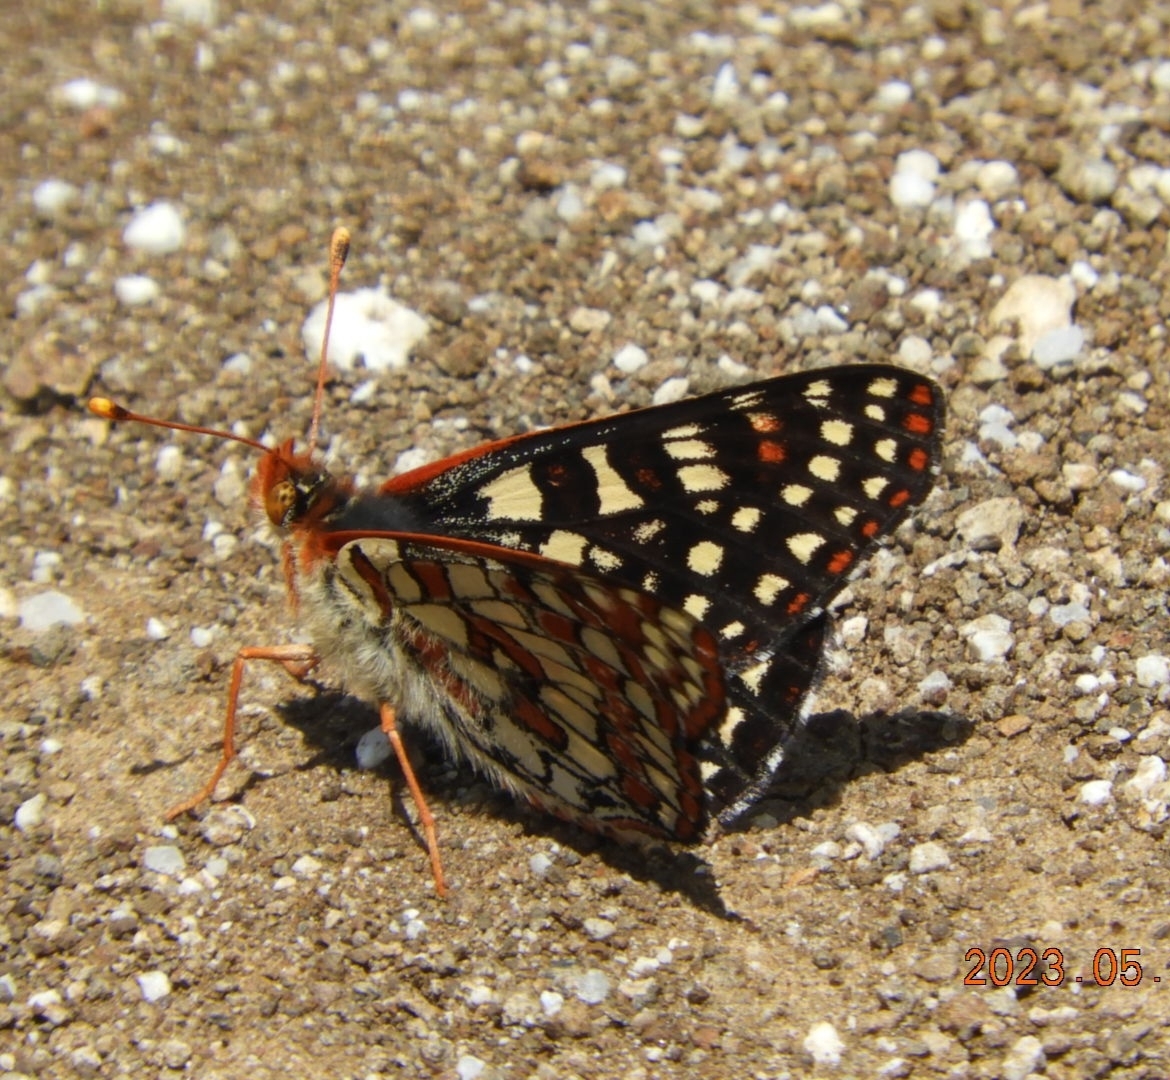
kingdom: Animalia
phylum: Arthropoda
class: Insecta
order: Lepidoptera
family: Nymphalidae
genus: Occidryas
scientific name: Occidryas chalcedona
